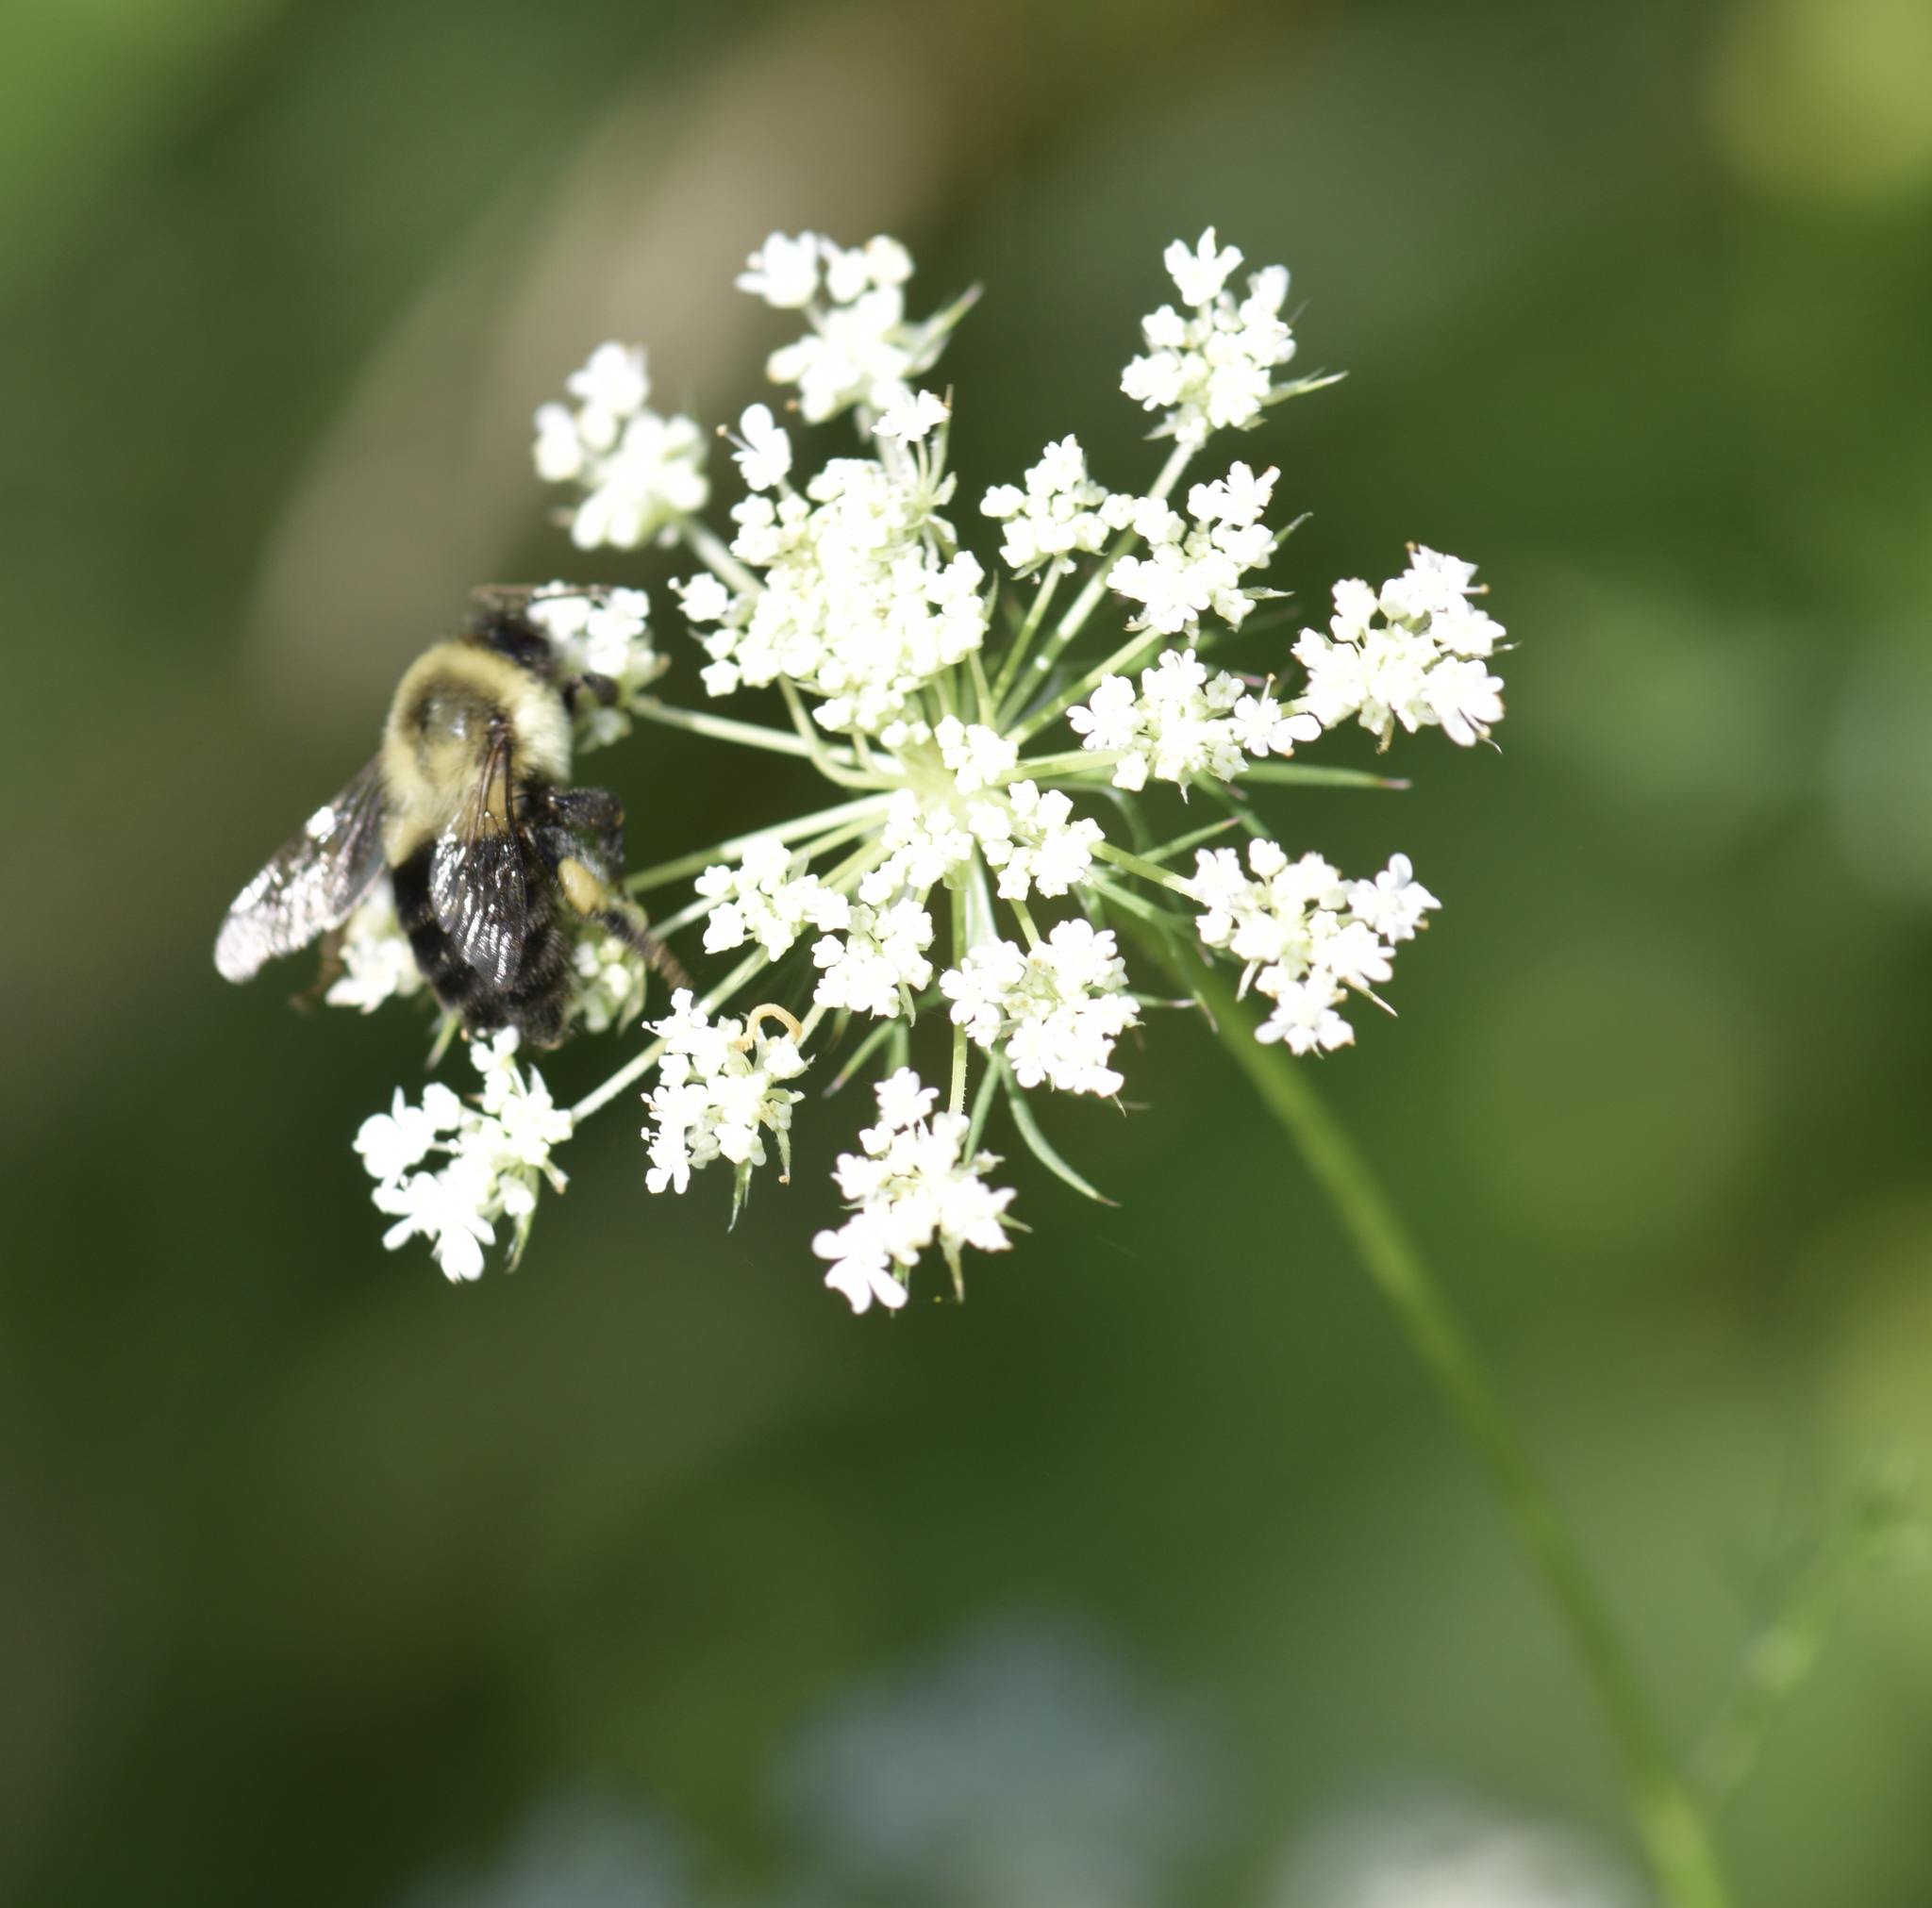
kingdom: Animalia
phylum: Arthropoda
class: Insecta
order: Hymenoptera
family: Apidae
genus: Bombus
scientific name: Bombus impatiens
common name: Common eastern bumble bee
